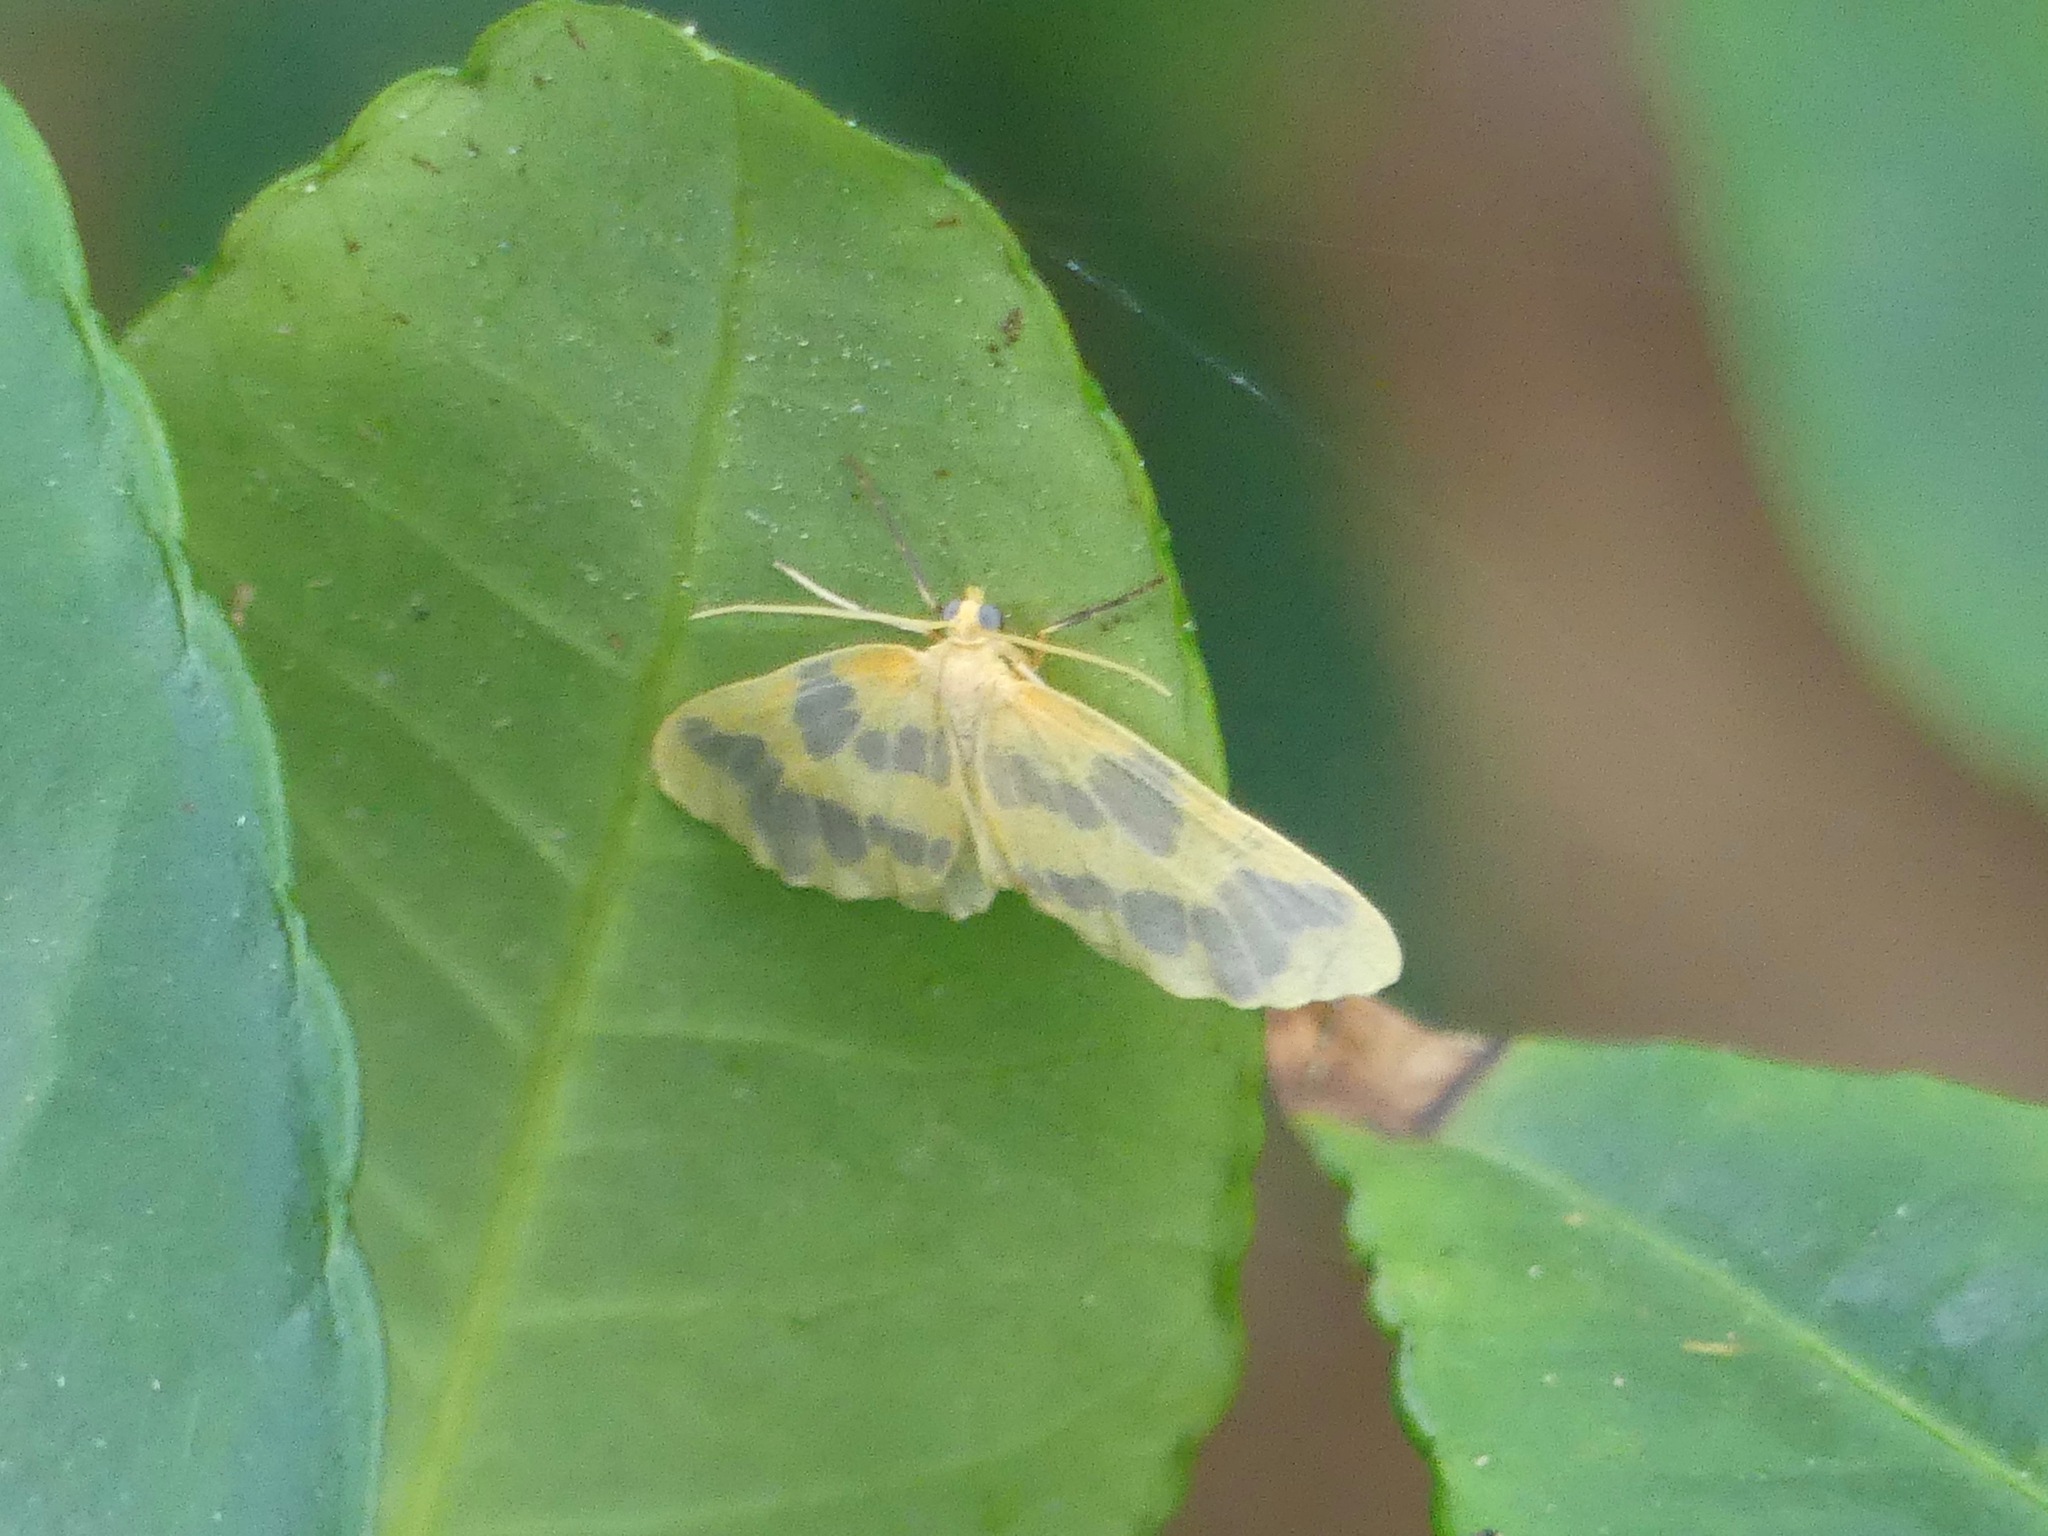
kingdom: Animalia
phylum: Arthropoda
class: Insecta
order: Lepidoptera
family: Geometridae
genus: Eubaphe
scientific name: Eubaphe mendica
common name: Beggar
